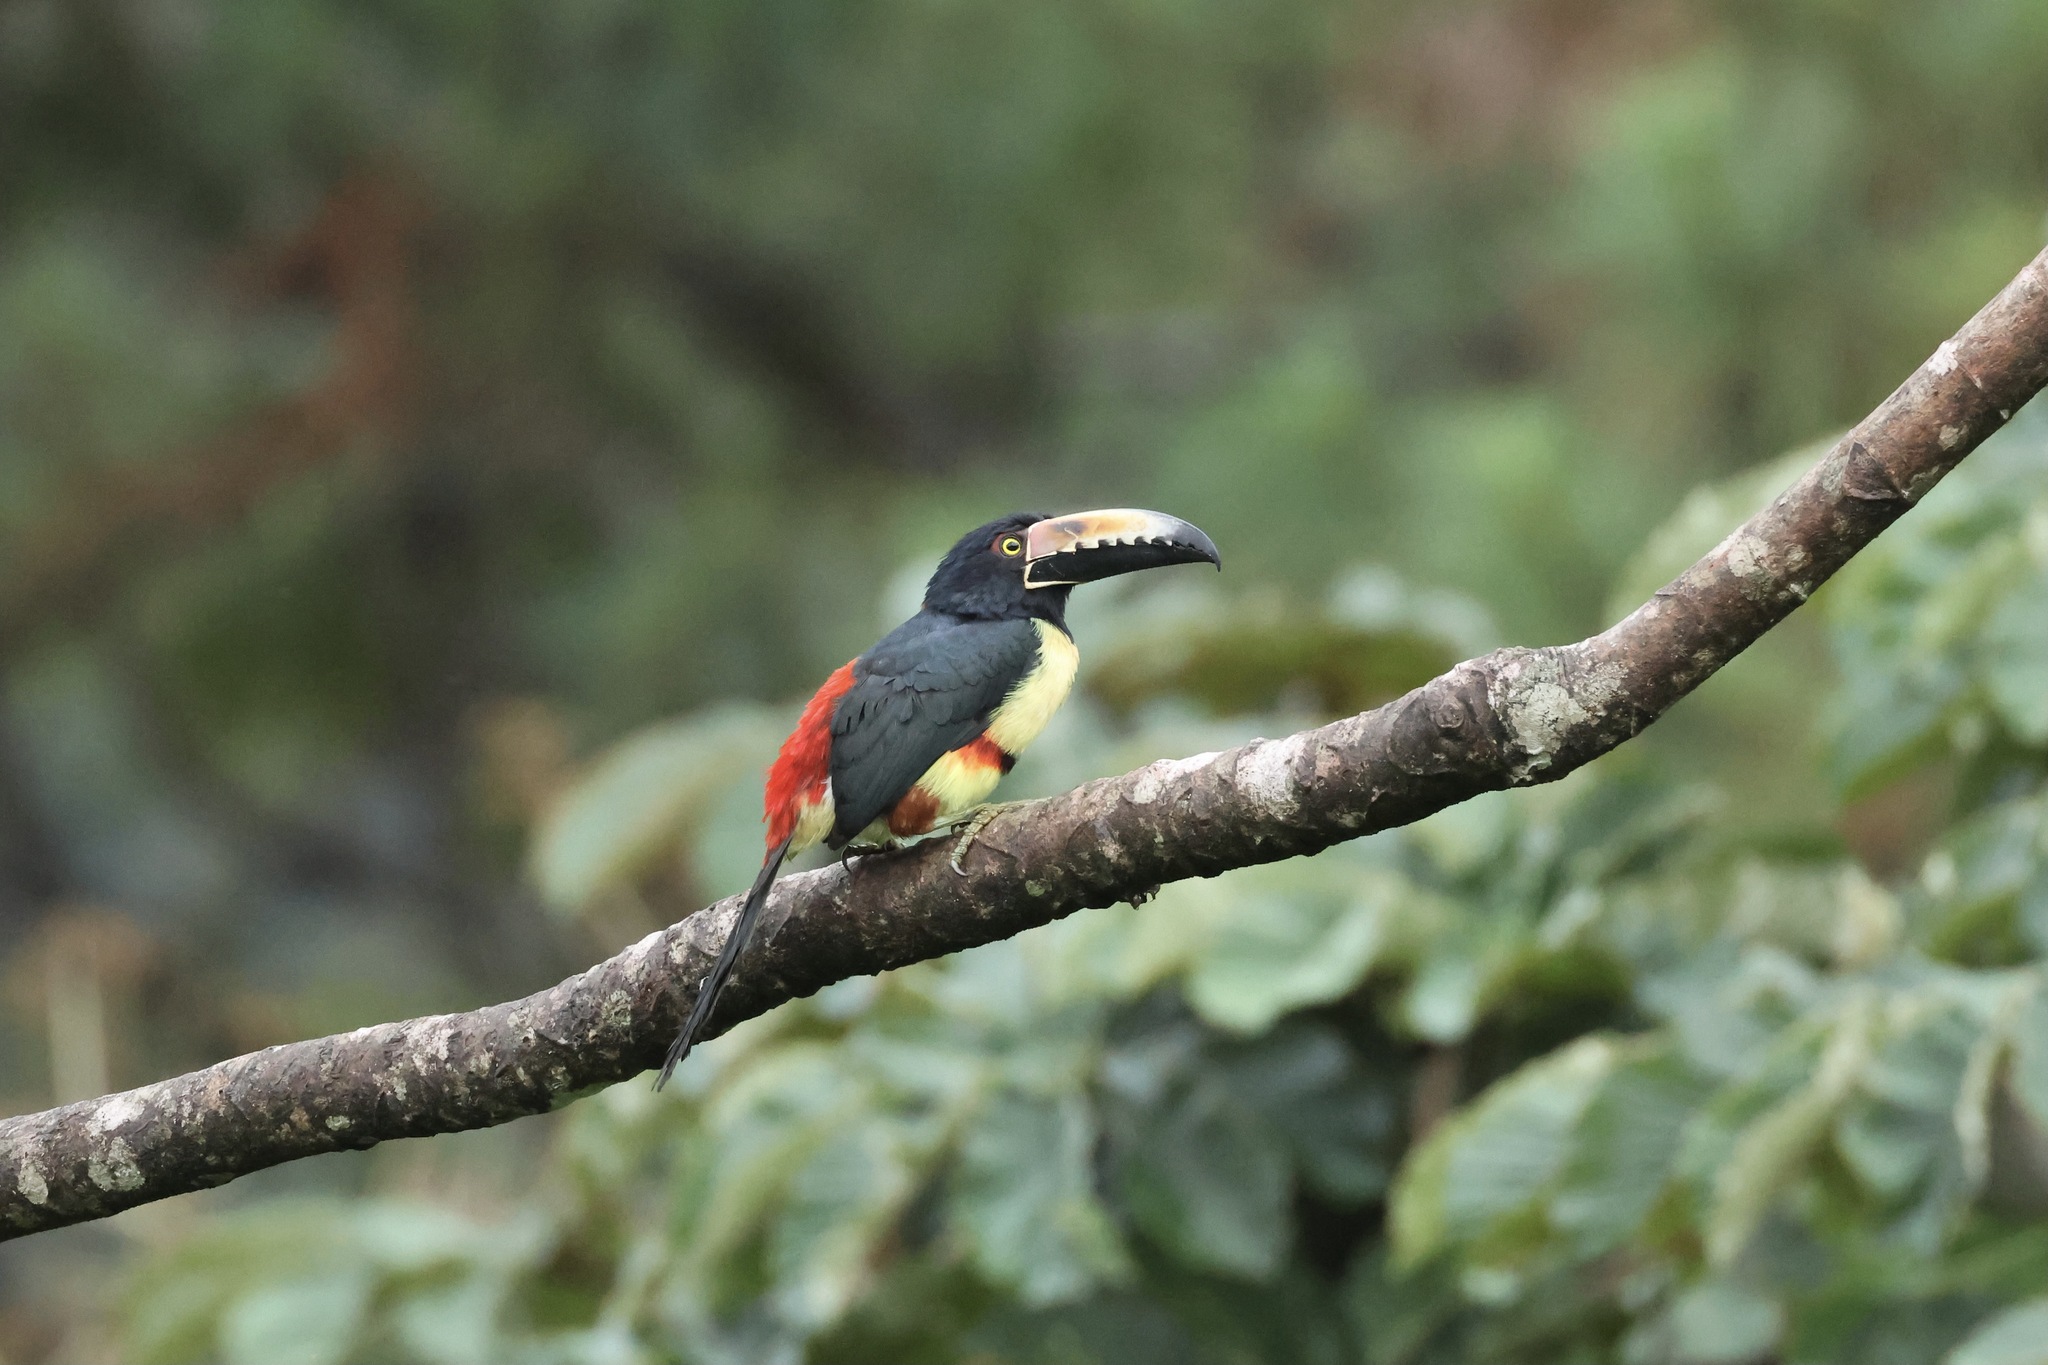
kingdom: Animalia
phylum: Chordata
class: Aves
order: Piciformes
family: Ramphastidae
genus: Pteroglossus
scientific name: Pteroglossus torquatus
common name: Collared aracari
